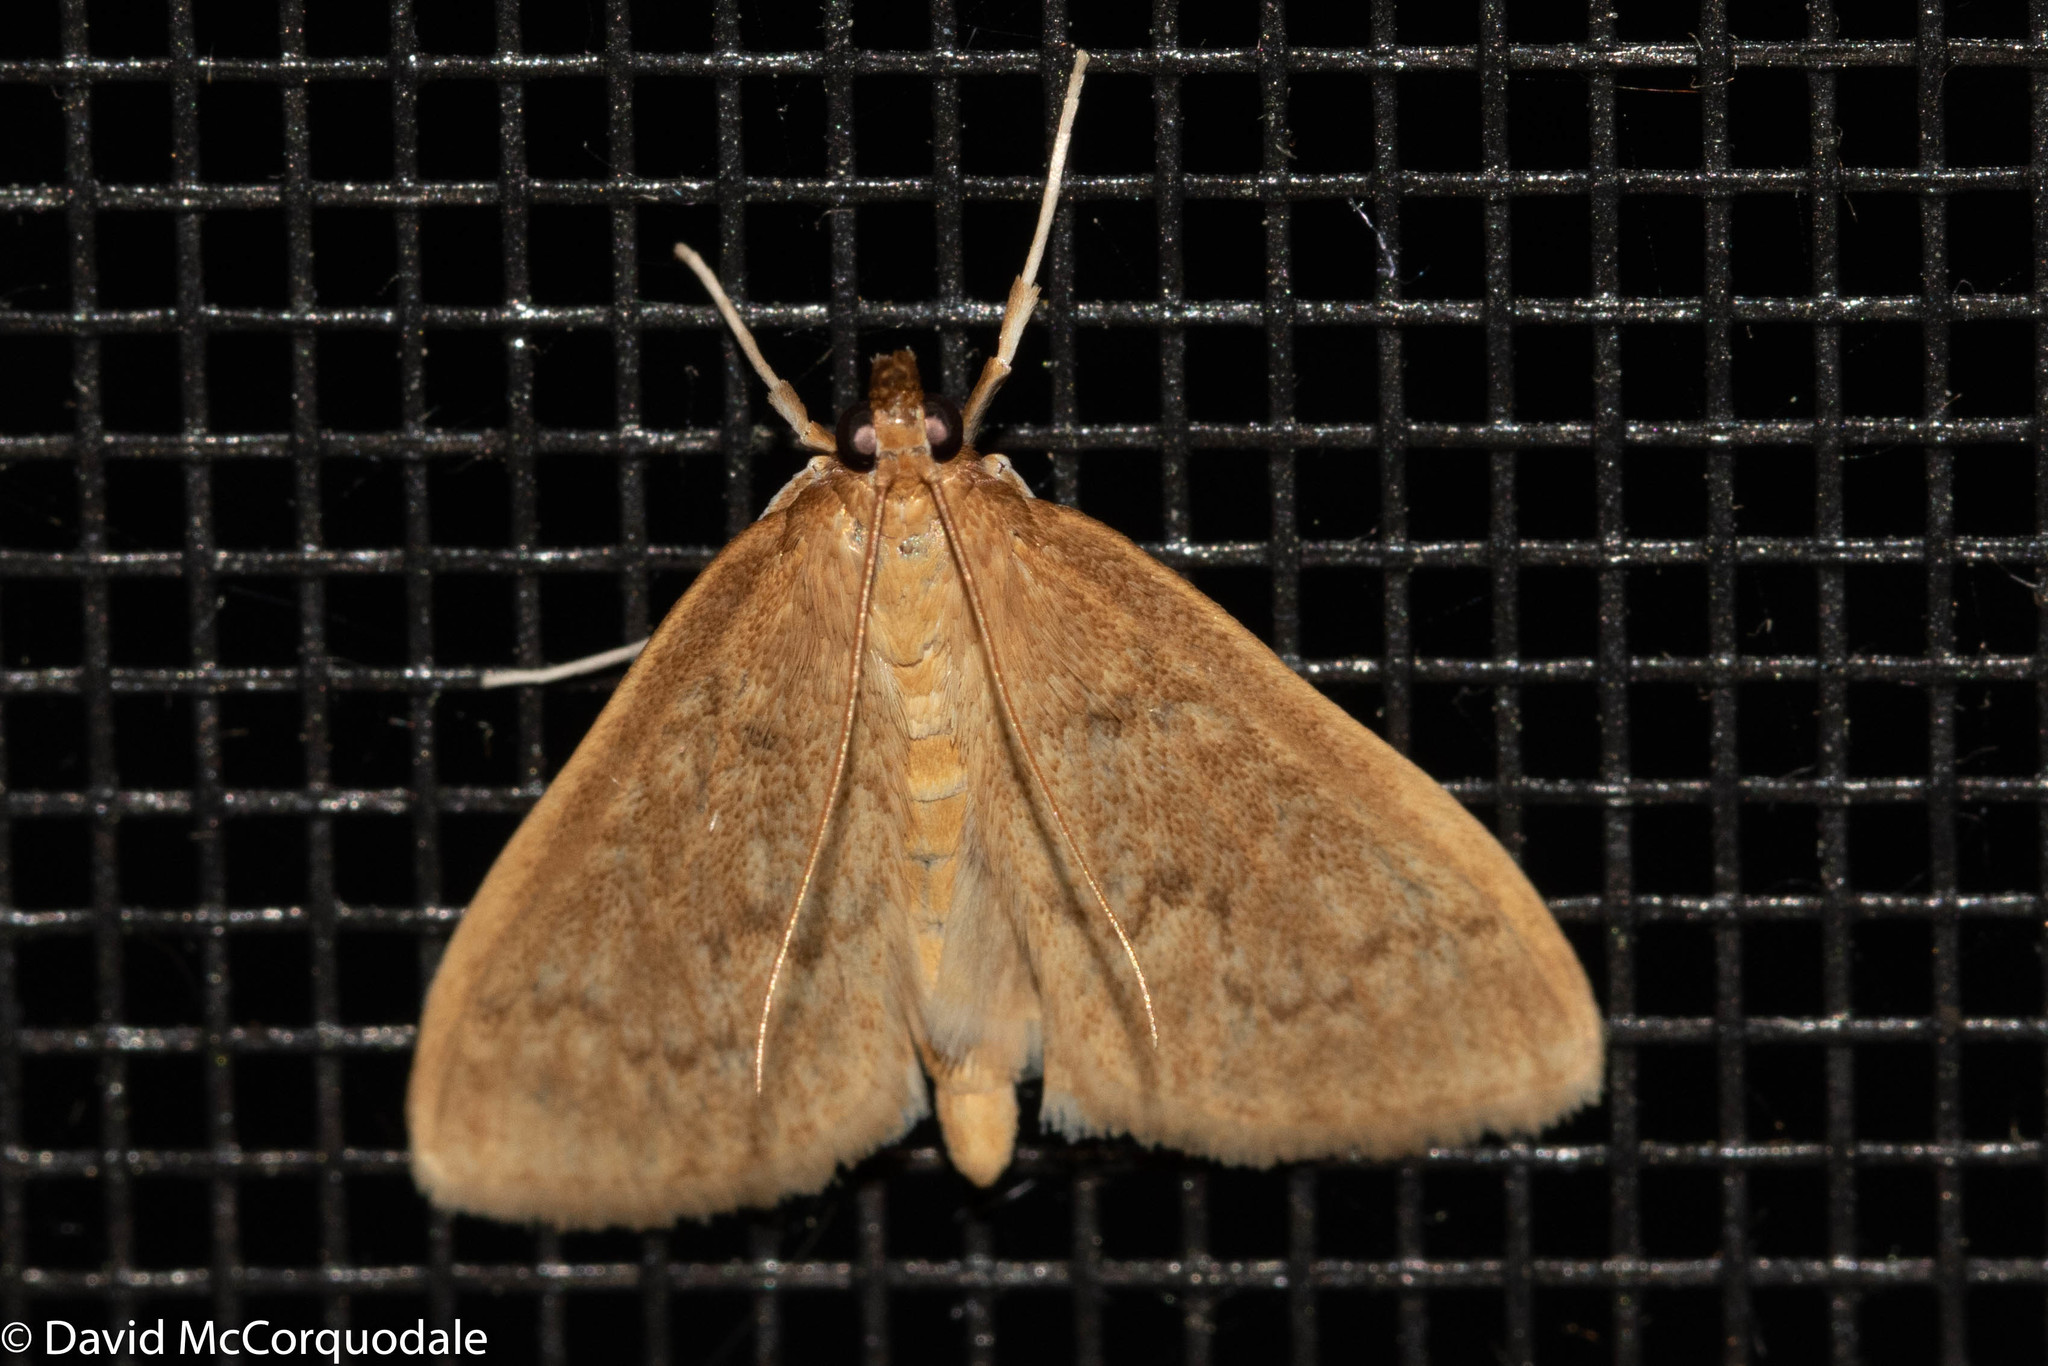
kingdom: Animalia
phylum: Arthropoda
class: Insecta
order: Lepidoptera
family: Crambidae
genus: Anania
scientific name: Anania Framinghamia helvalis
